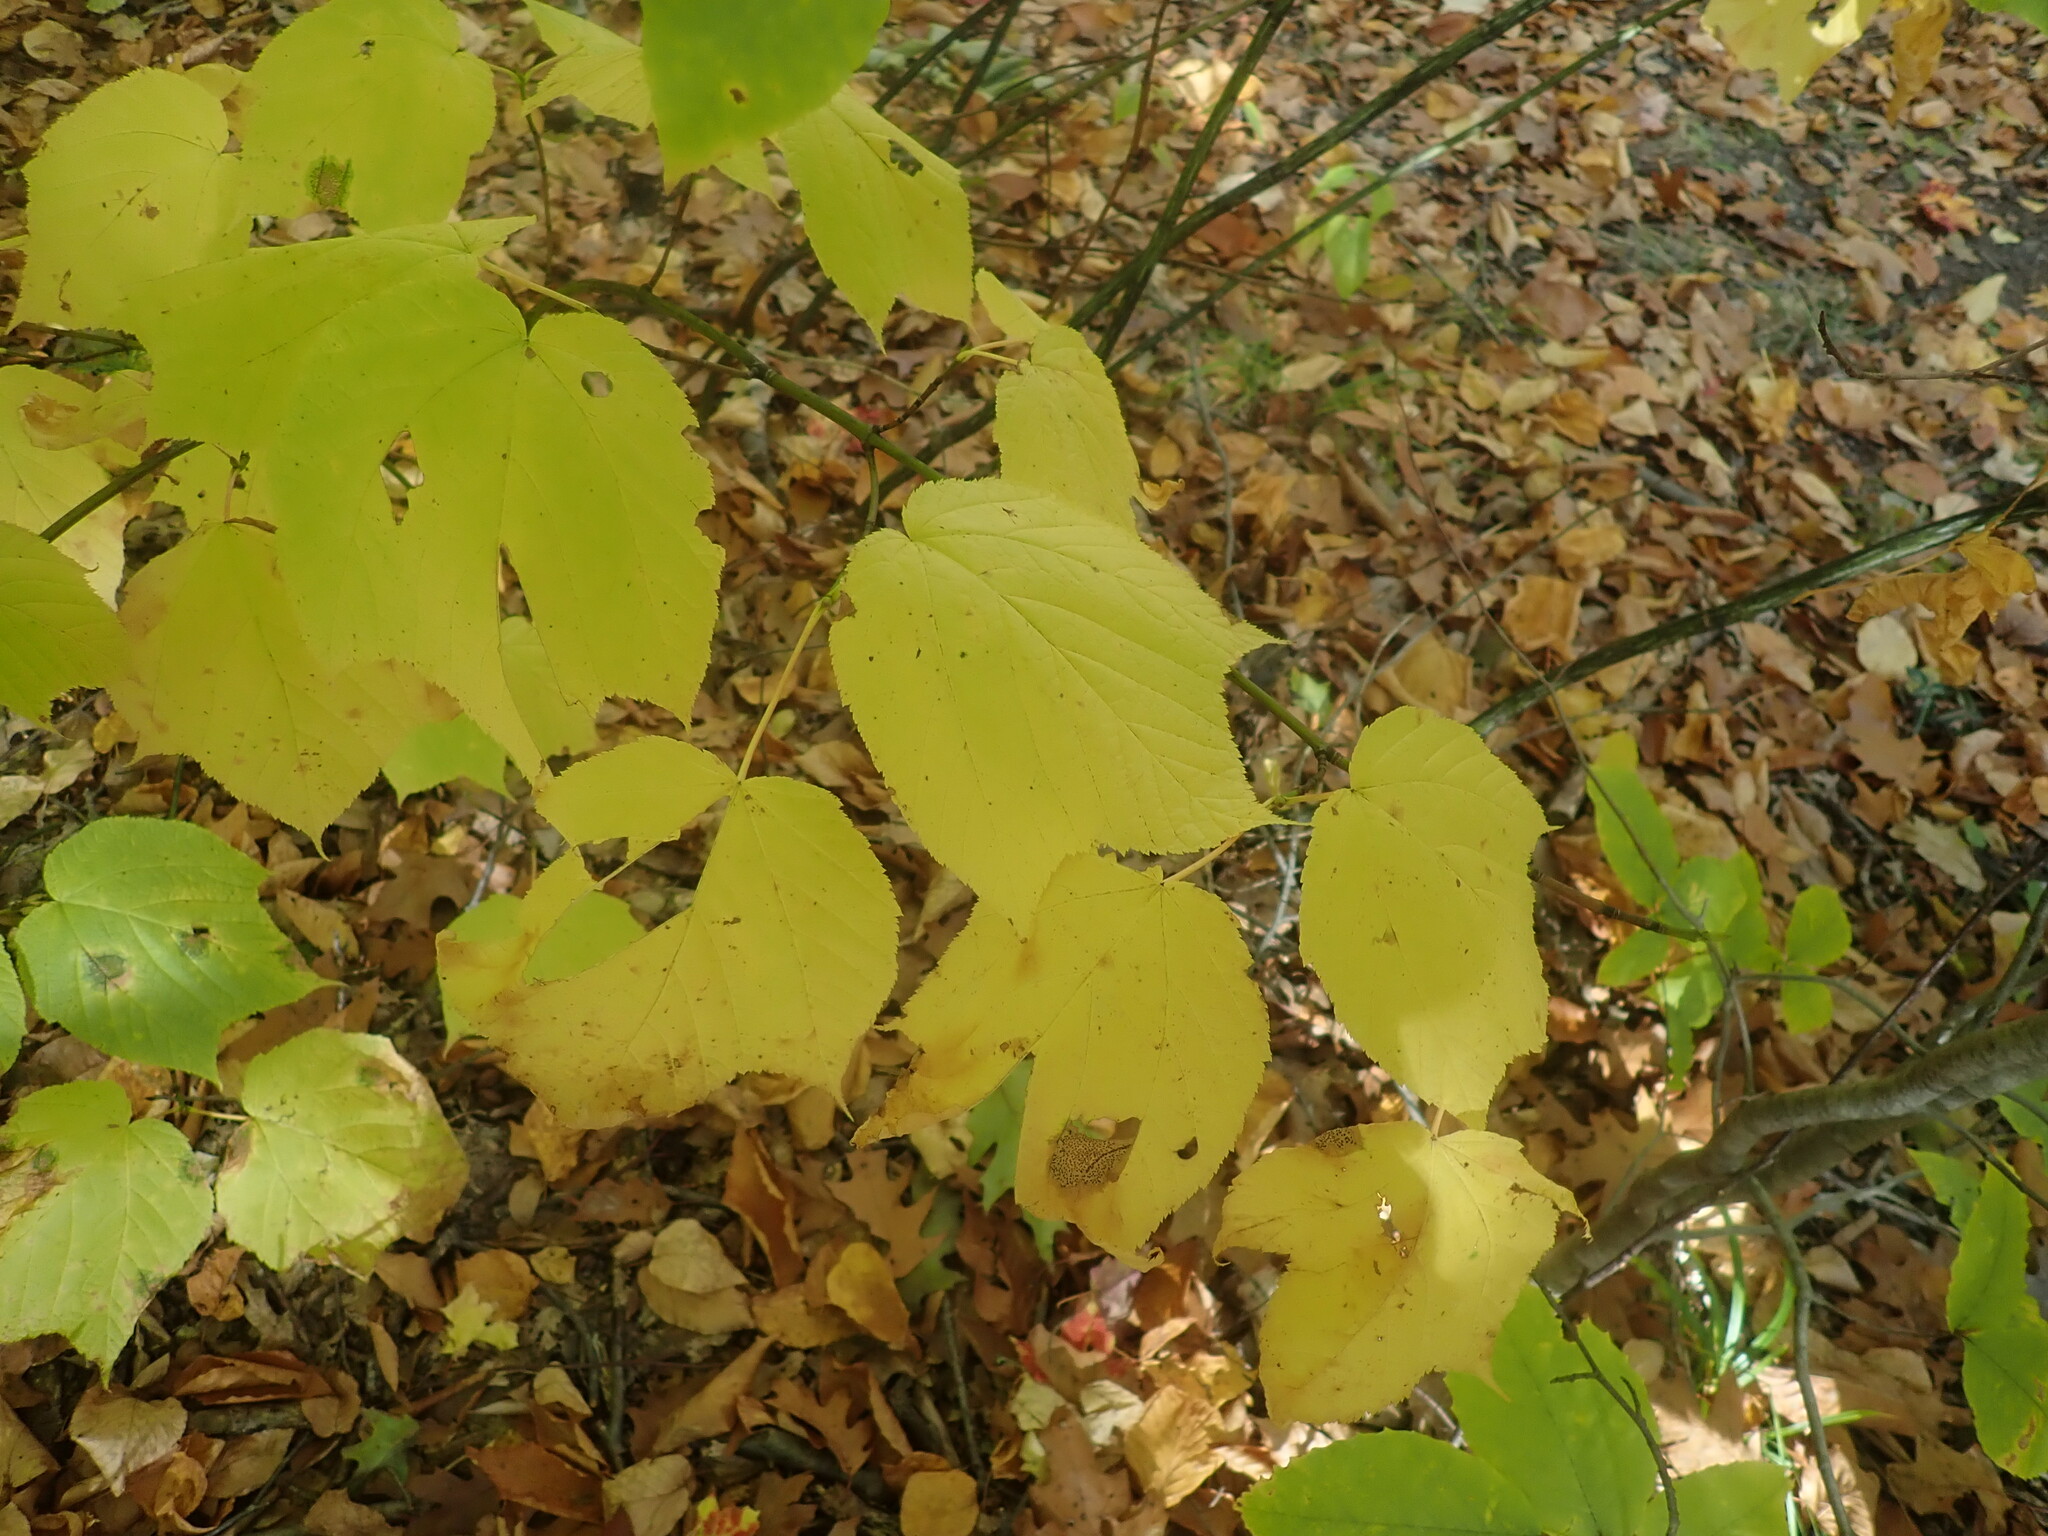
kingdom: Plantae
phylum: Tracheophyta
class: Magnoliopsida
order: Sapindales
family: Sapindaceae
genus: Acer
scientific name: Acer pensylvanicum
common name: Moosewood
